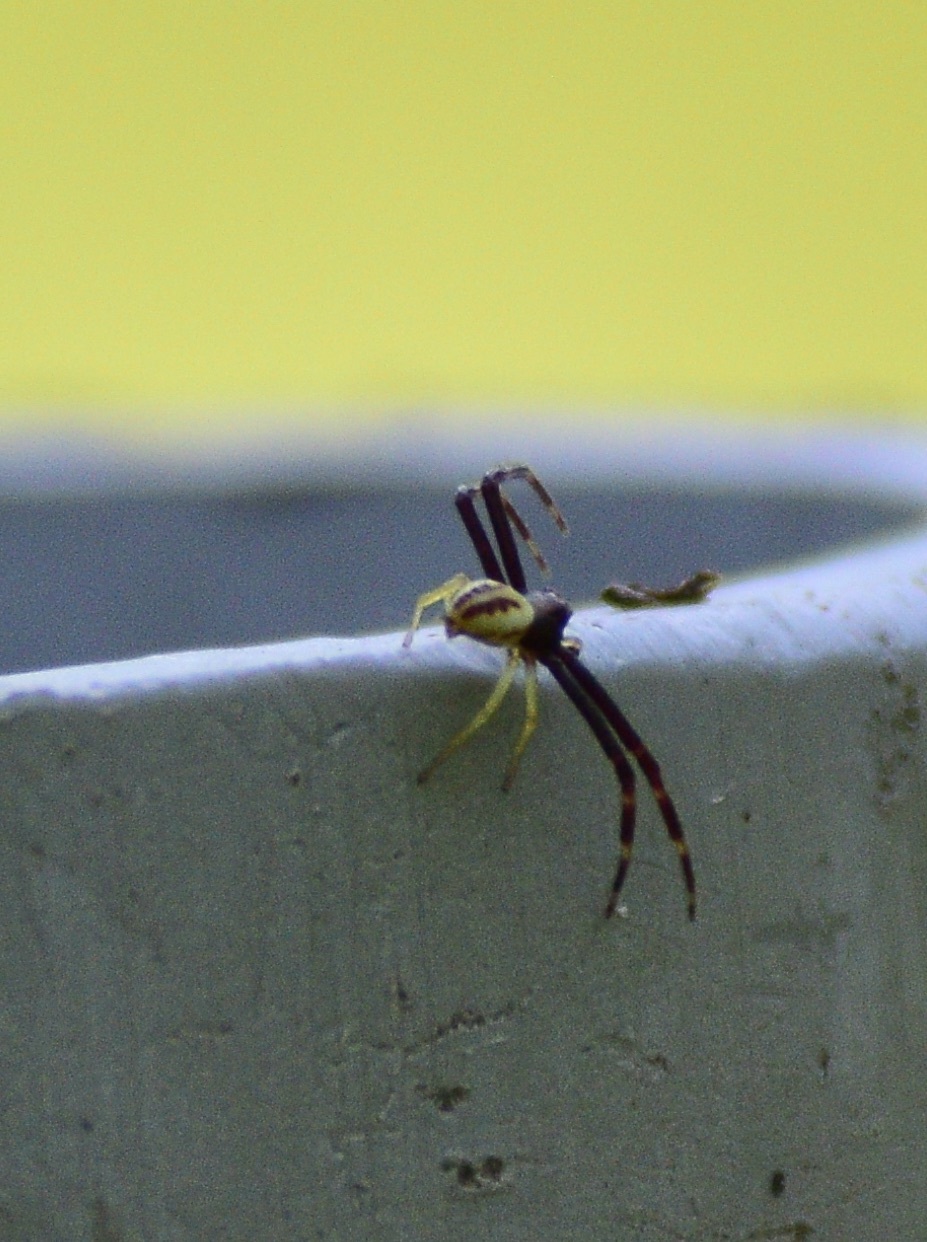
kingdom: Animalia
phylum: Arthropoda
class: Arachnida
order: Araneae
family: Thomisidae
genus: Misumena
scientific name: Misumena vatia
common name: Goldenrod crab spider
